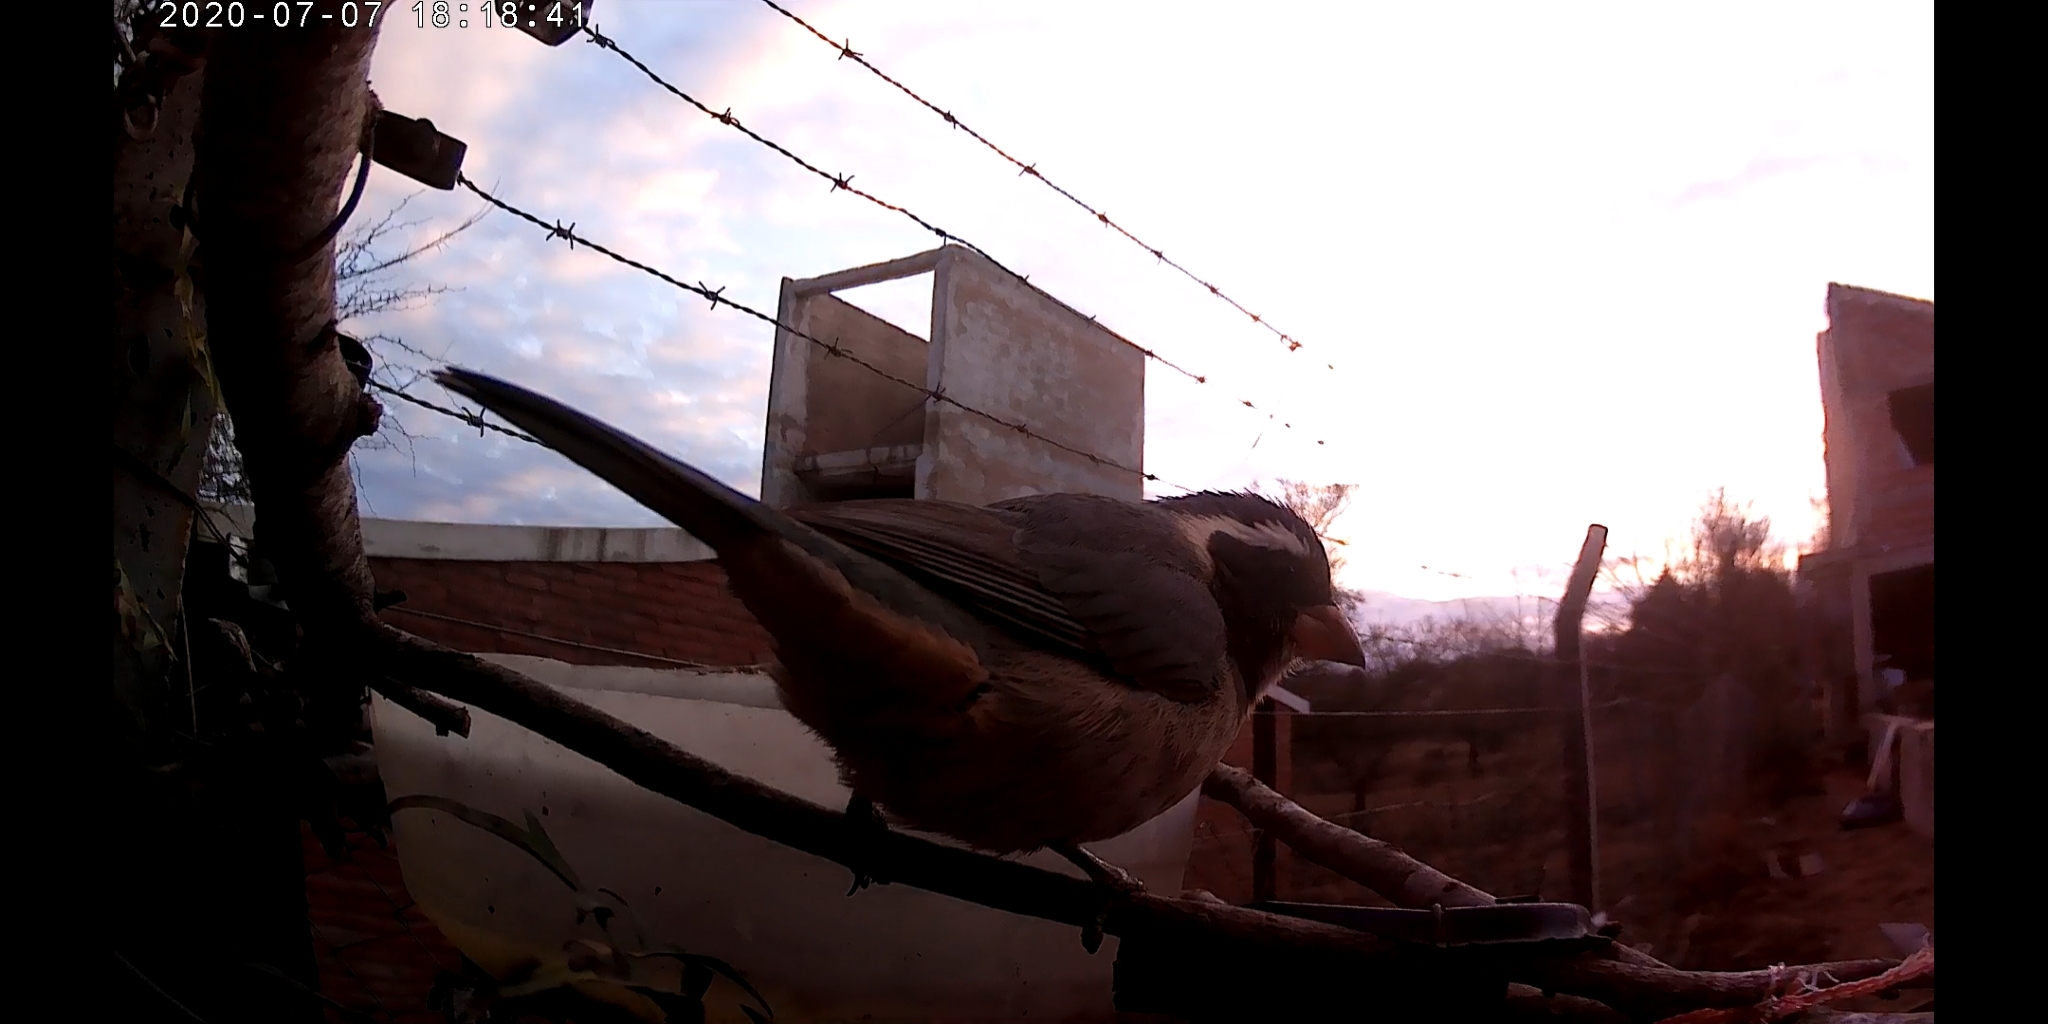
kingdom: Animalia
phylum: Chordata
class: Aves
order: Passeriformes
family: Thraupidae
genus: Saltator
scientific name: Saltator aurantiirostris
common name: Golden-billed saltator
